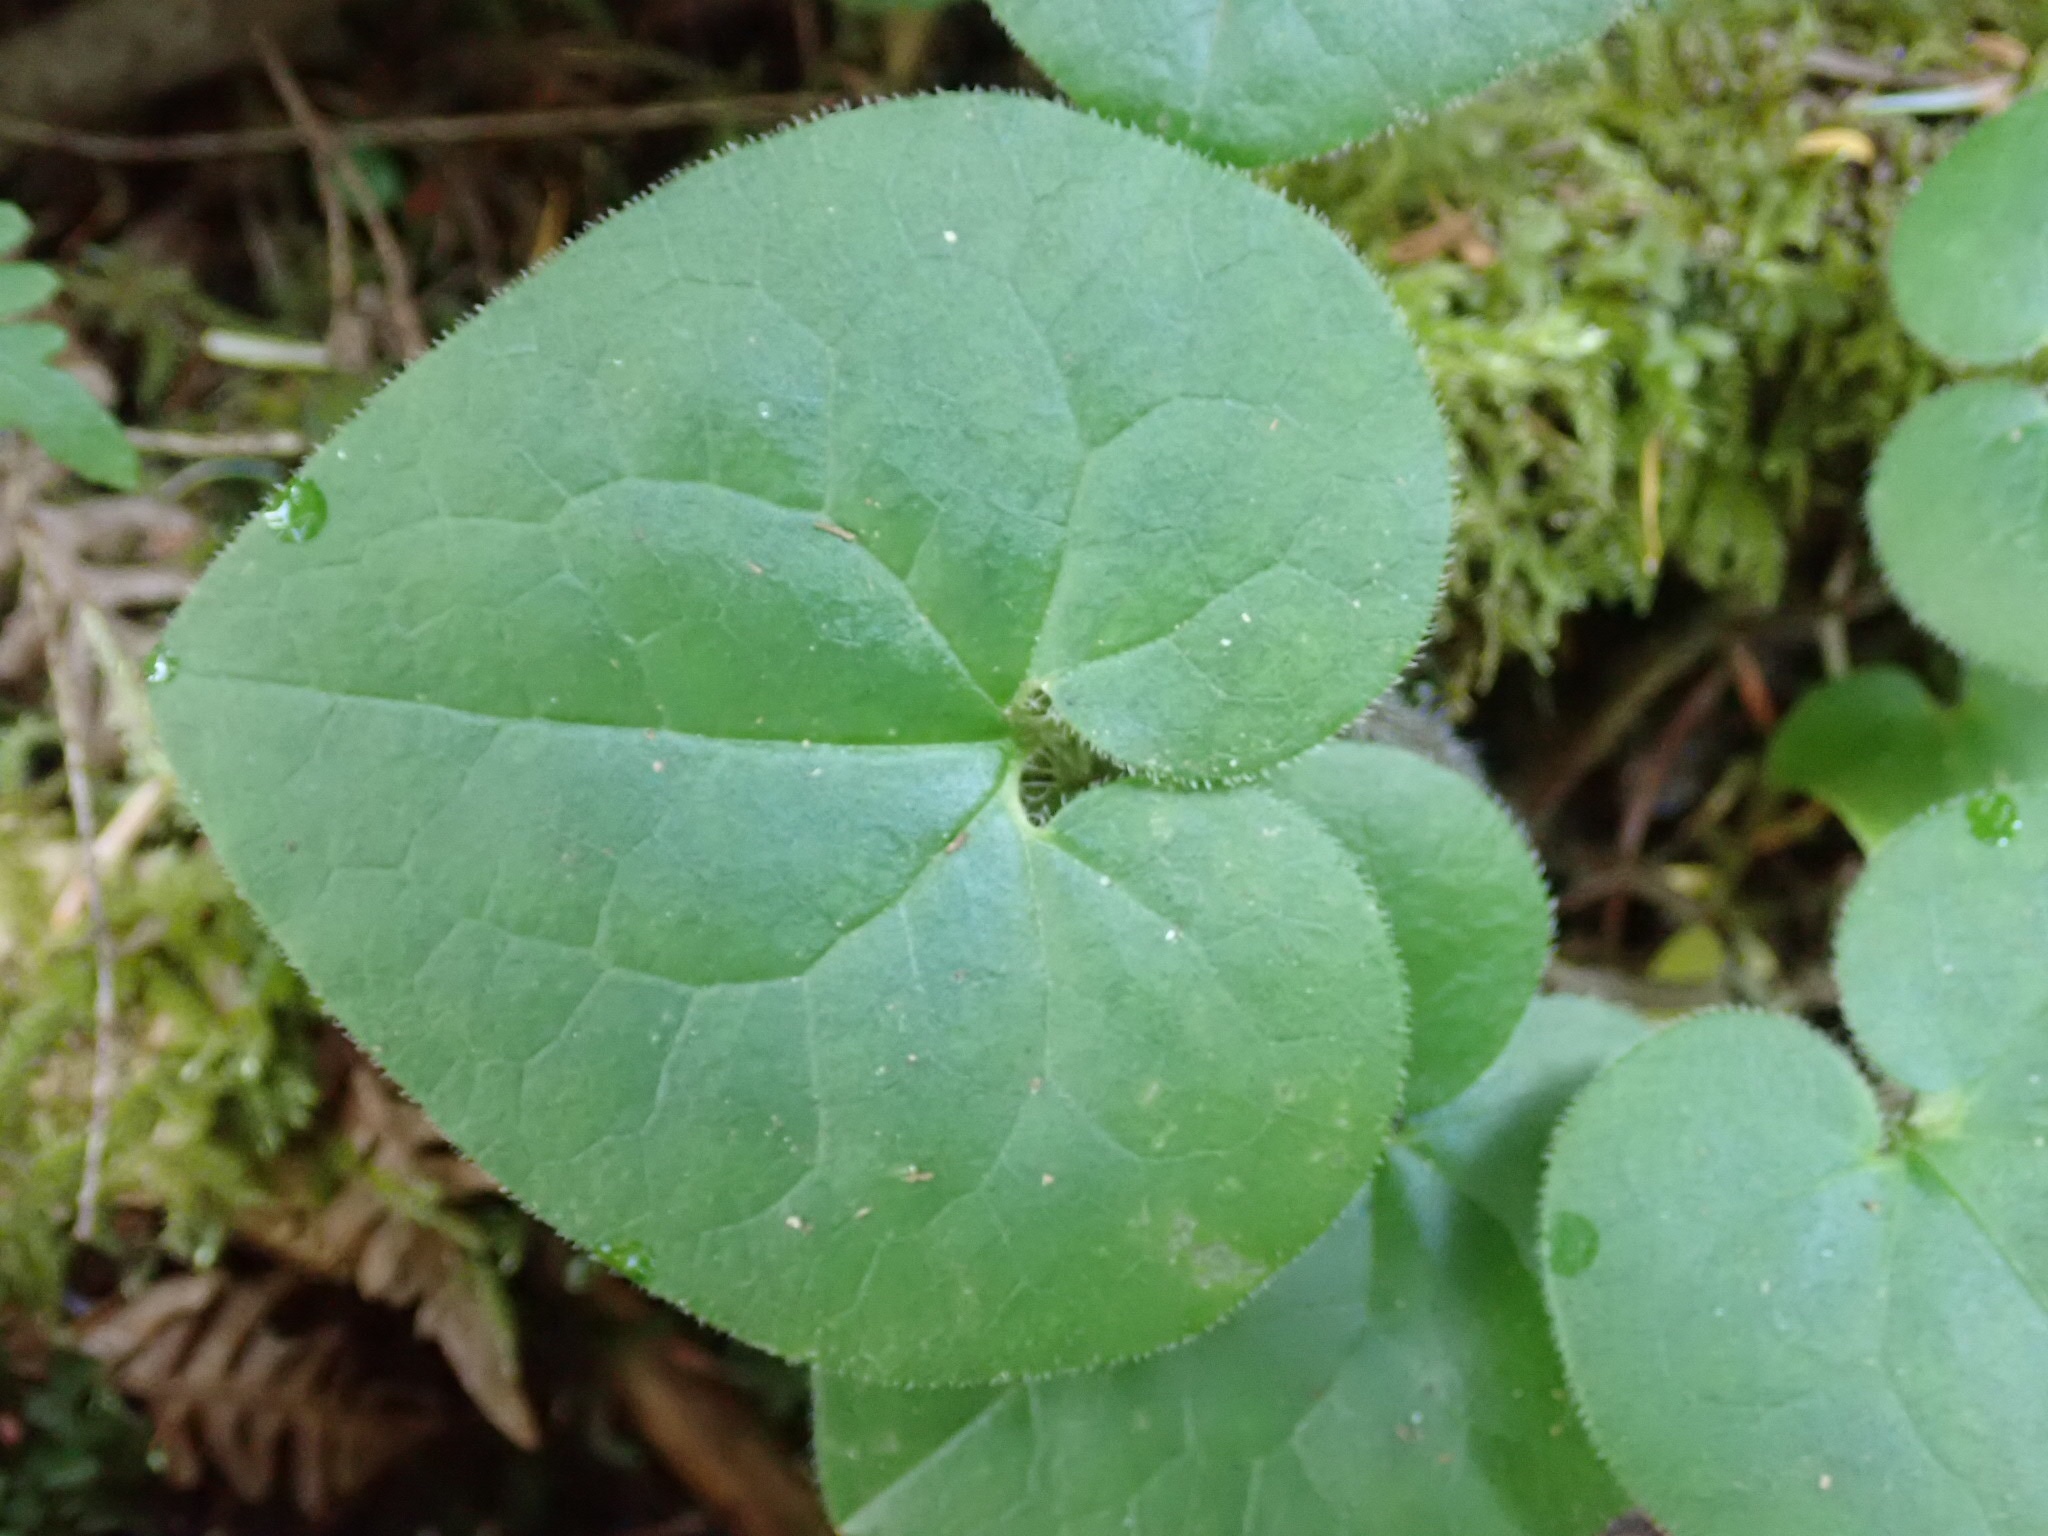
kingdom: Plantae
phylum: Tracheophyta
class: Magnoliopsida
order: Piperales
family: Aristolochiaceae
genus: Asarum
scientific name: Asarum caudatum
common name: Wild ginger
